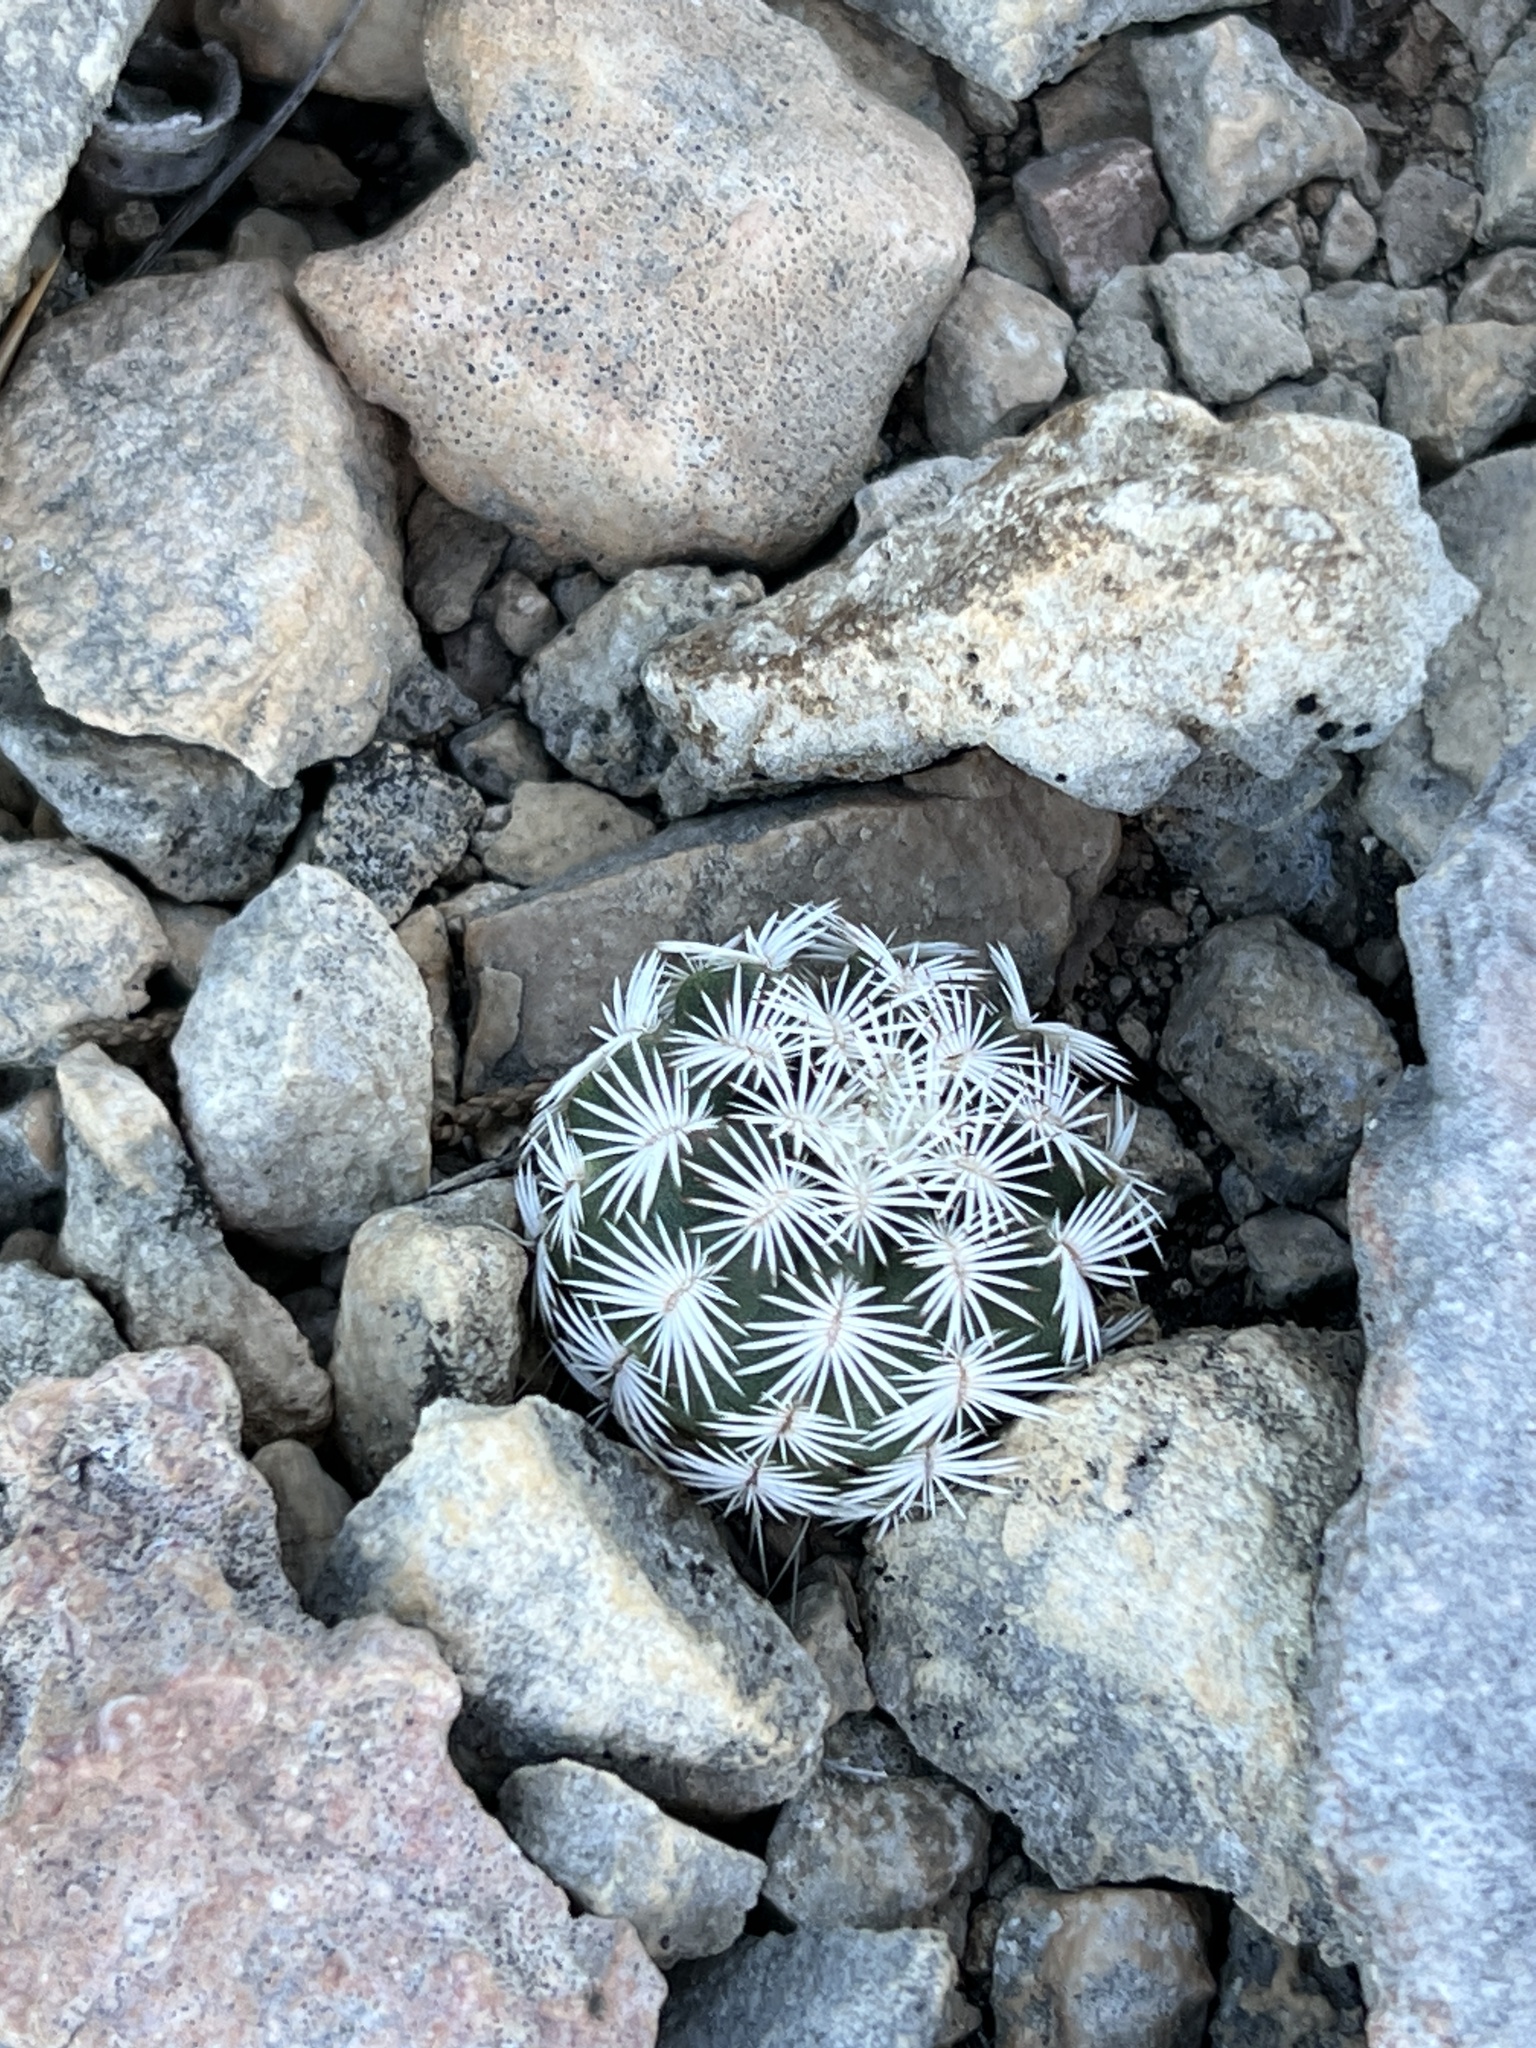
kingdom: Plantae
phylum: Tracheophyta
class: Magnoliopsida
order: Caryophyllales
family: Cactaceae
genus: Echinocereus
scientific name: Echinocereus reichenbachii
